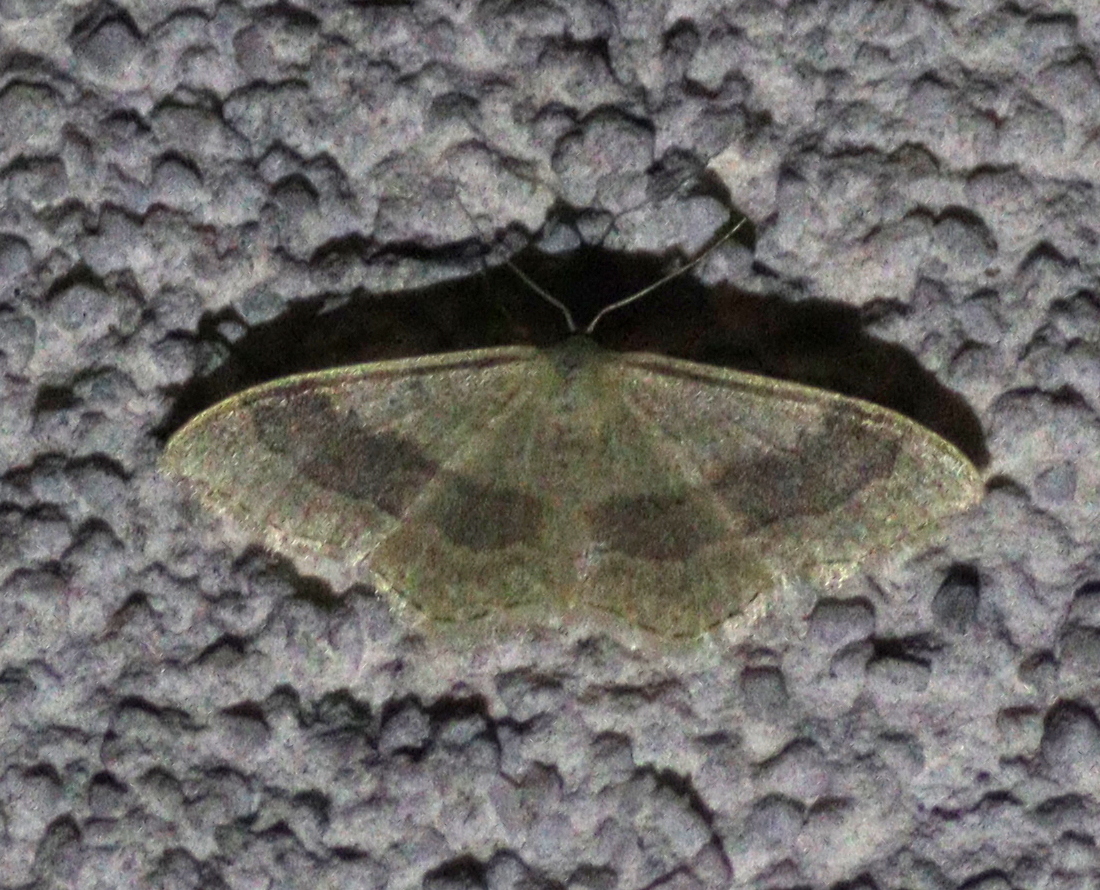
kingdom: Animalia
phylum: Arthropoda
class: Insecta
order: Lepidoptera
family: Geometridae
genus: Idaea
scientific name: Idaea aversata
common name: Riband wave
